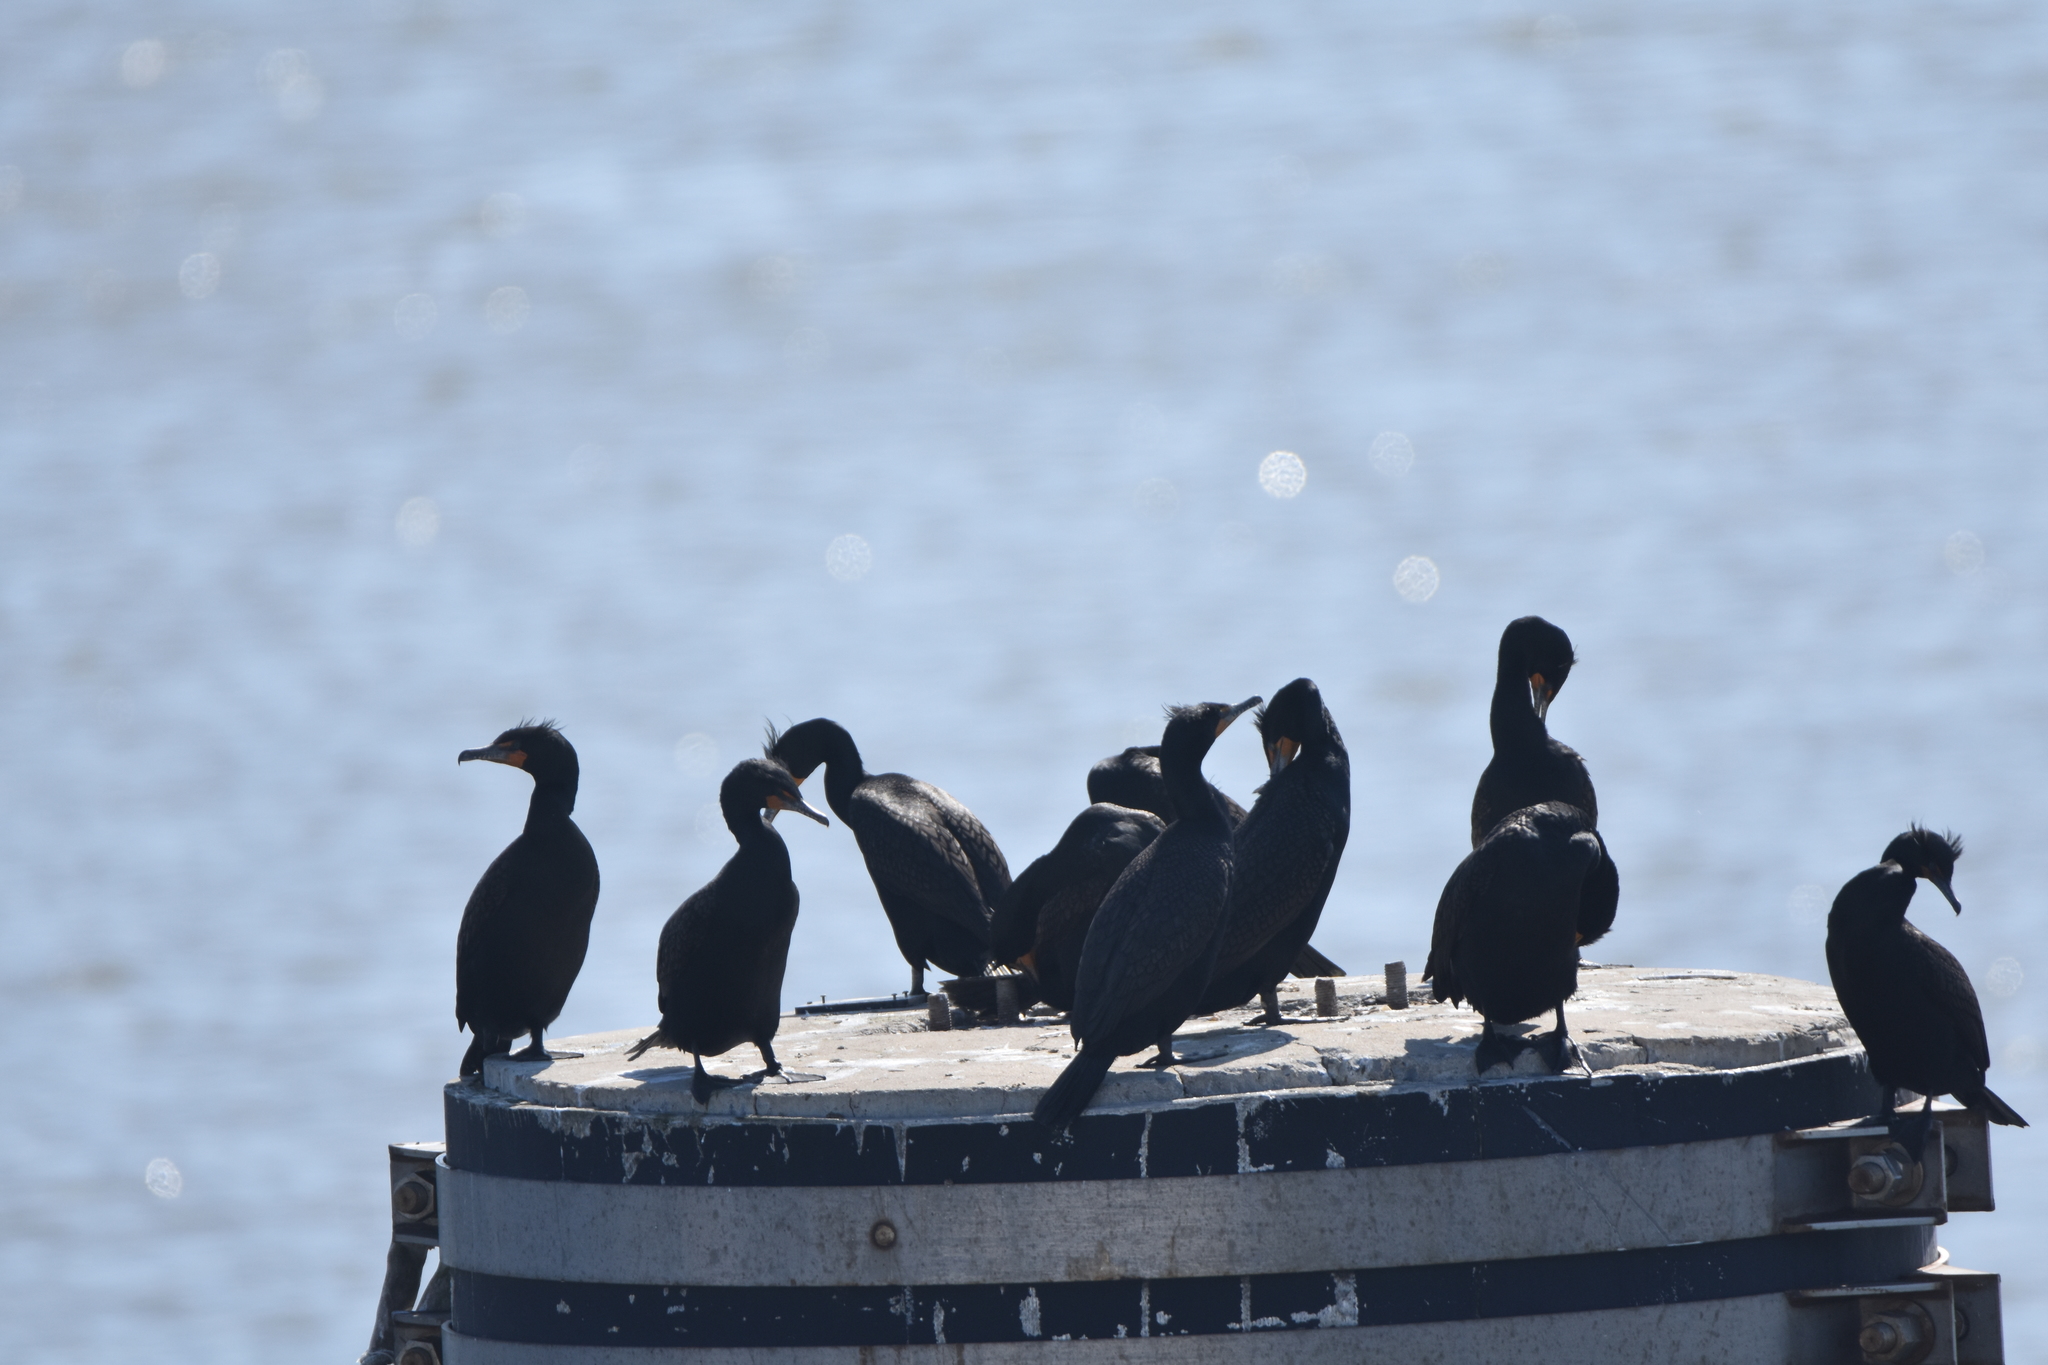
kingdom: Animalia
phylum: Chordata
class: Aves
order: Suliformes
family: Phalacrocoracidae
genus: Phalacrocorax
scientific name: Phalacrocorax auritus
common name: Double-crested cormorant
